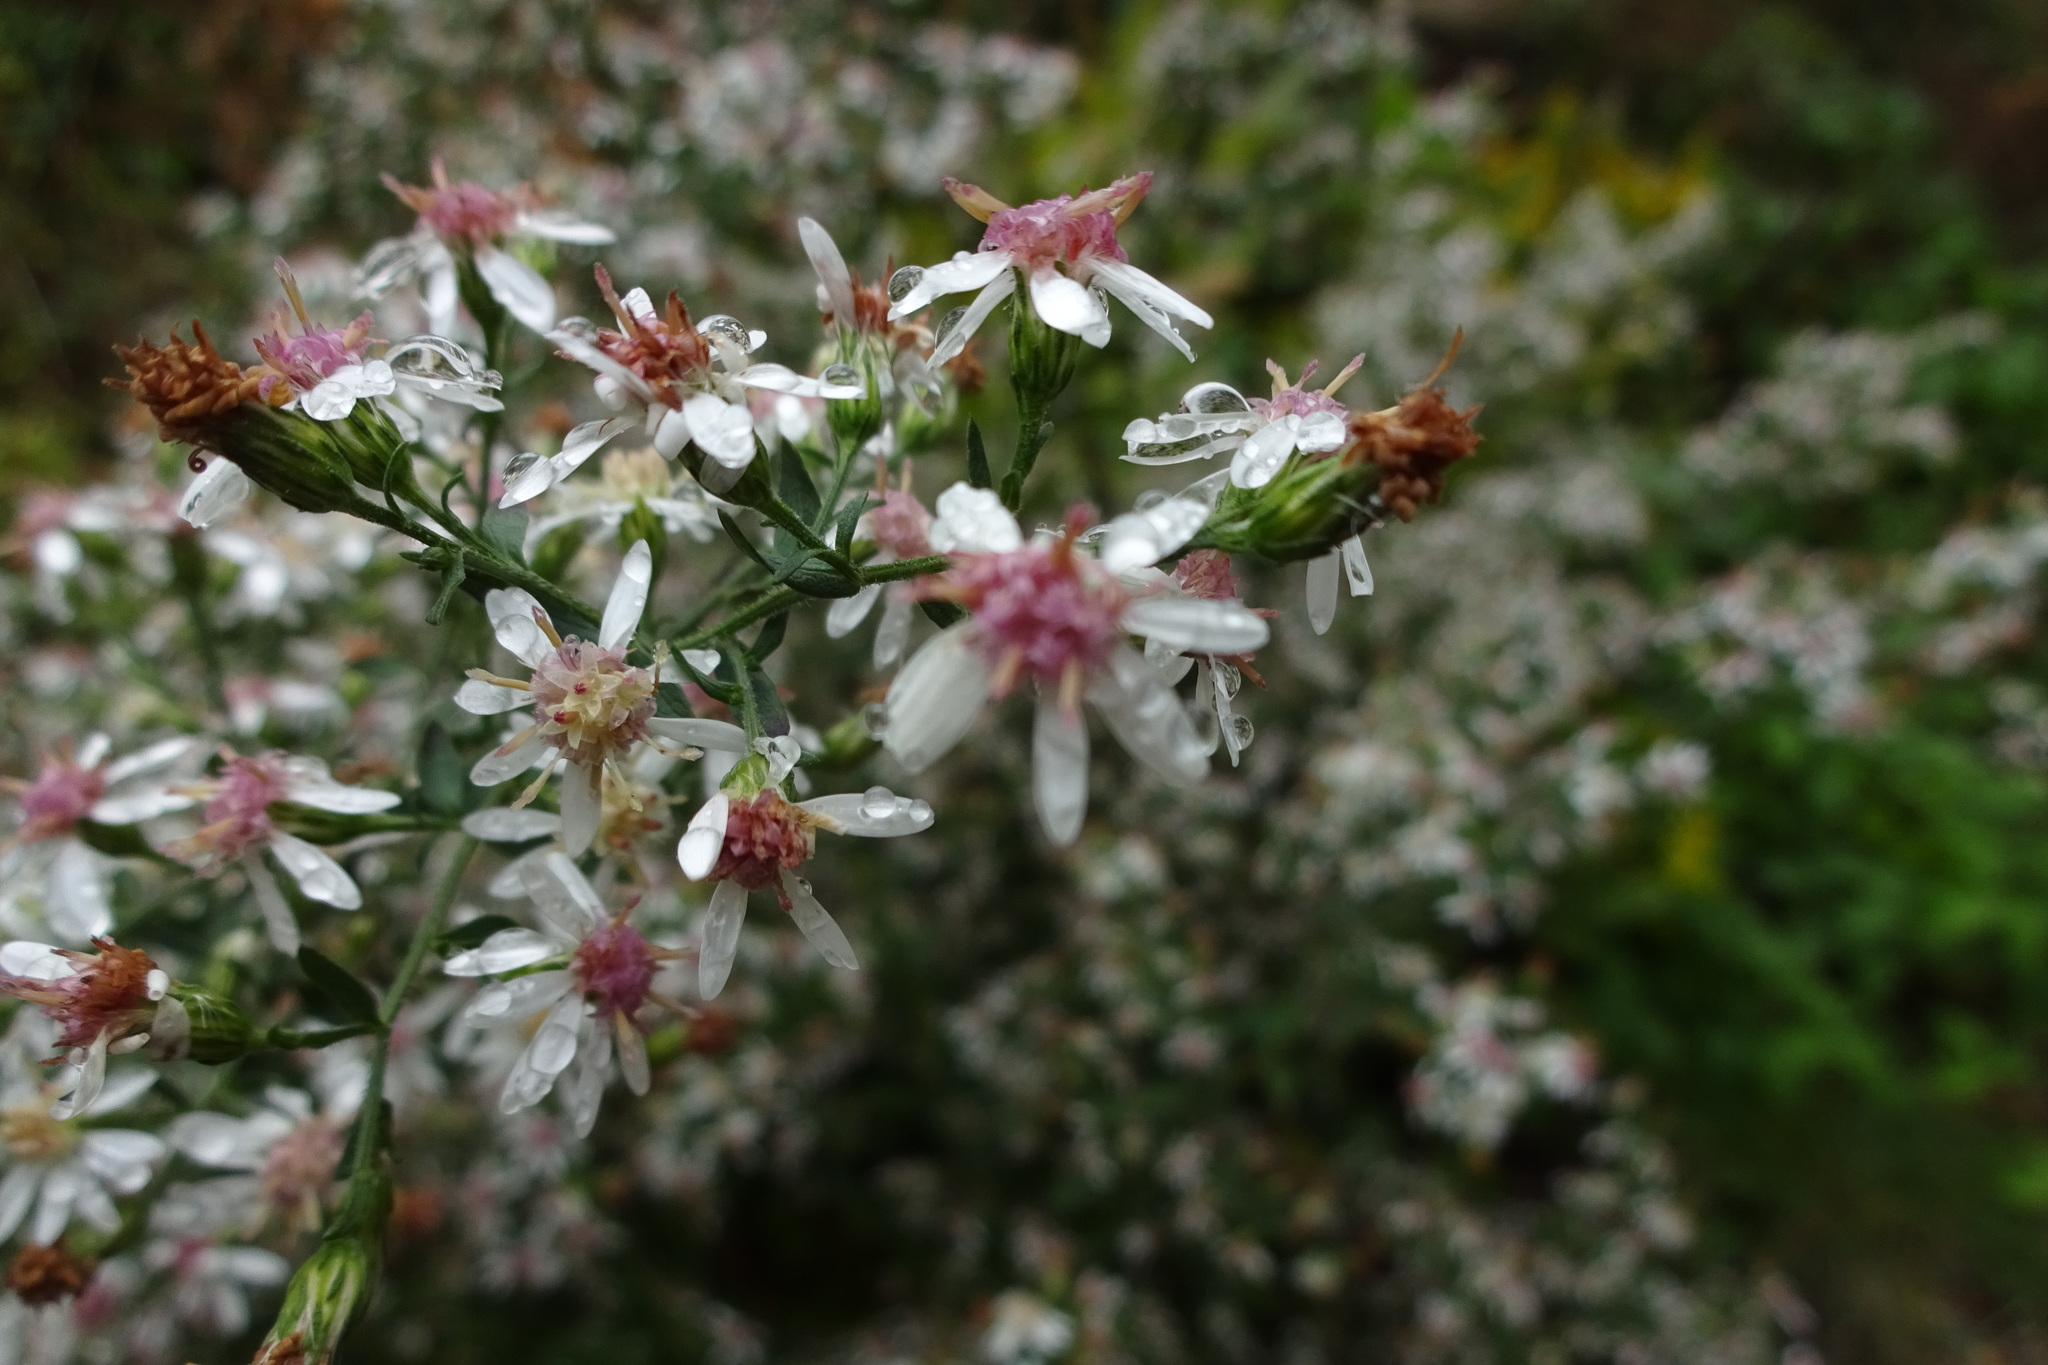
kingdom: Plantae
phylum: Tracheophyta
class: Magnoliopsida
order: Asterales
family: Asteraceae
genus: Symphyotrichum
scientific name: Symphyotrichum lateriflorum
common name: Calico aster
